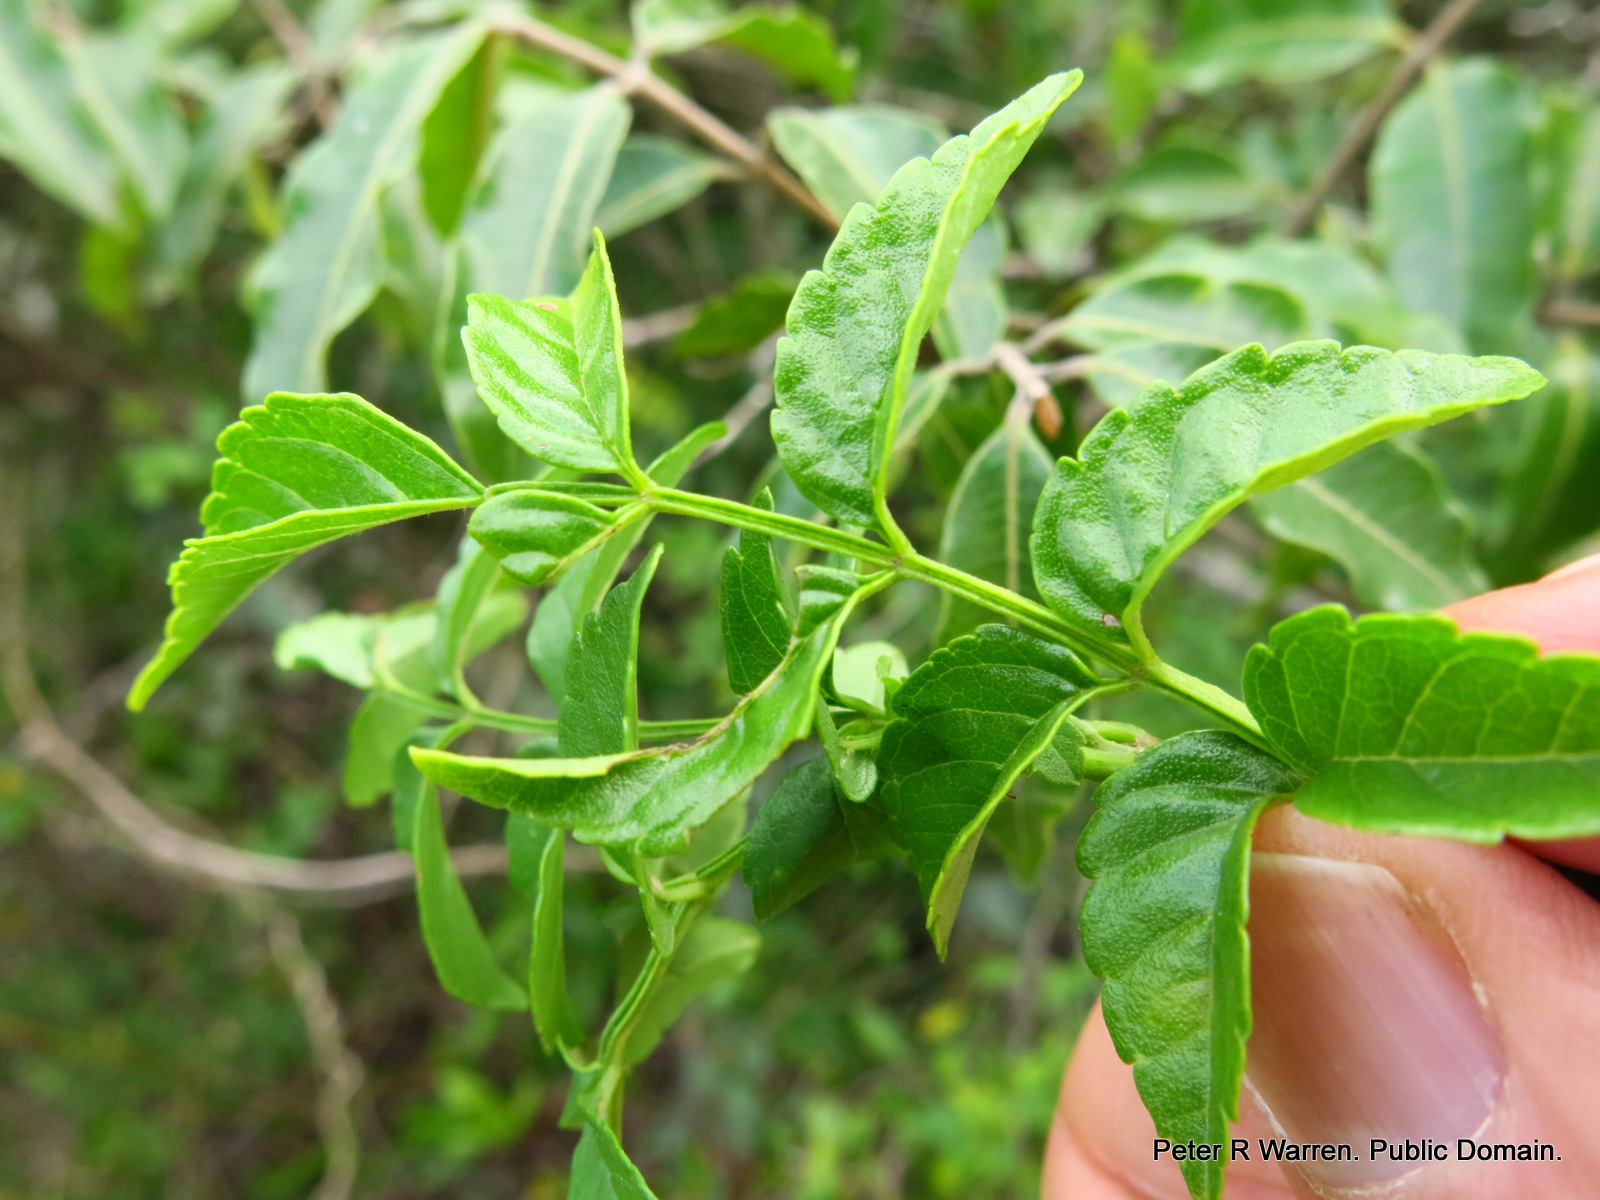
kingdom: Plantae
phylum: Tracheophyta
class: Magnoliopsida
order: Lamiales
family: Bignoniaceae
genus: Tecomaria
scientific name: Tecomaria capensis
